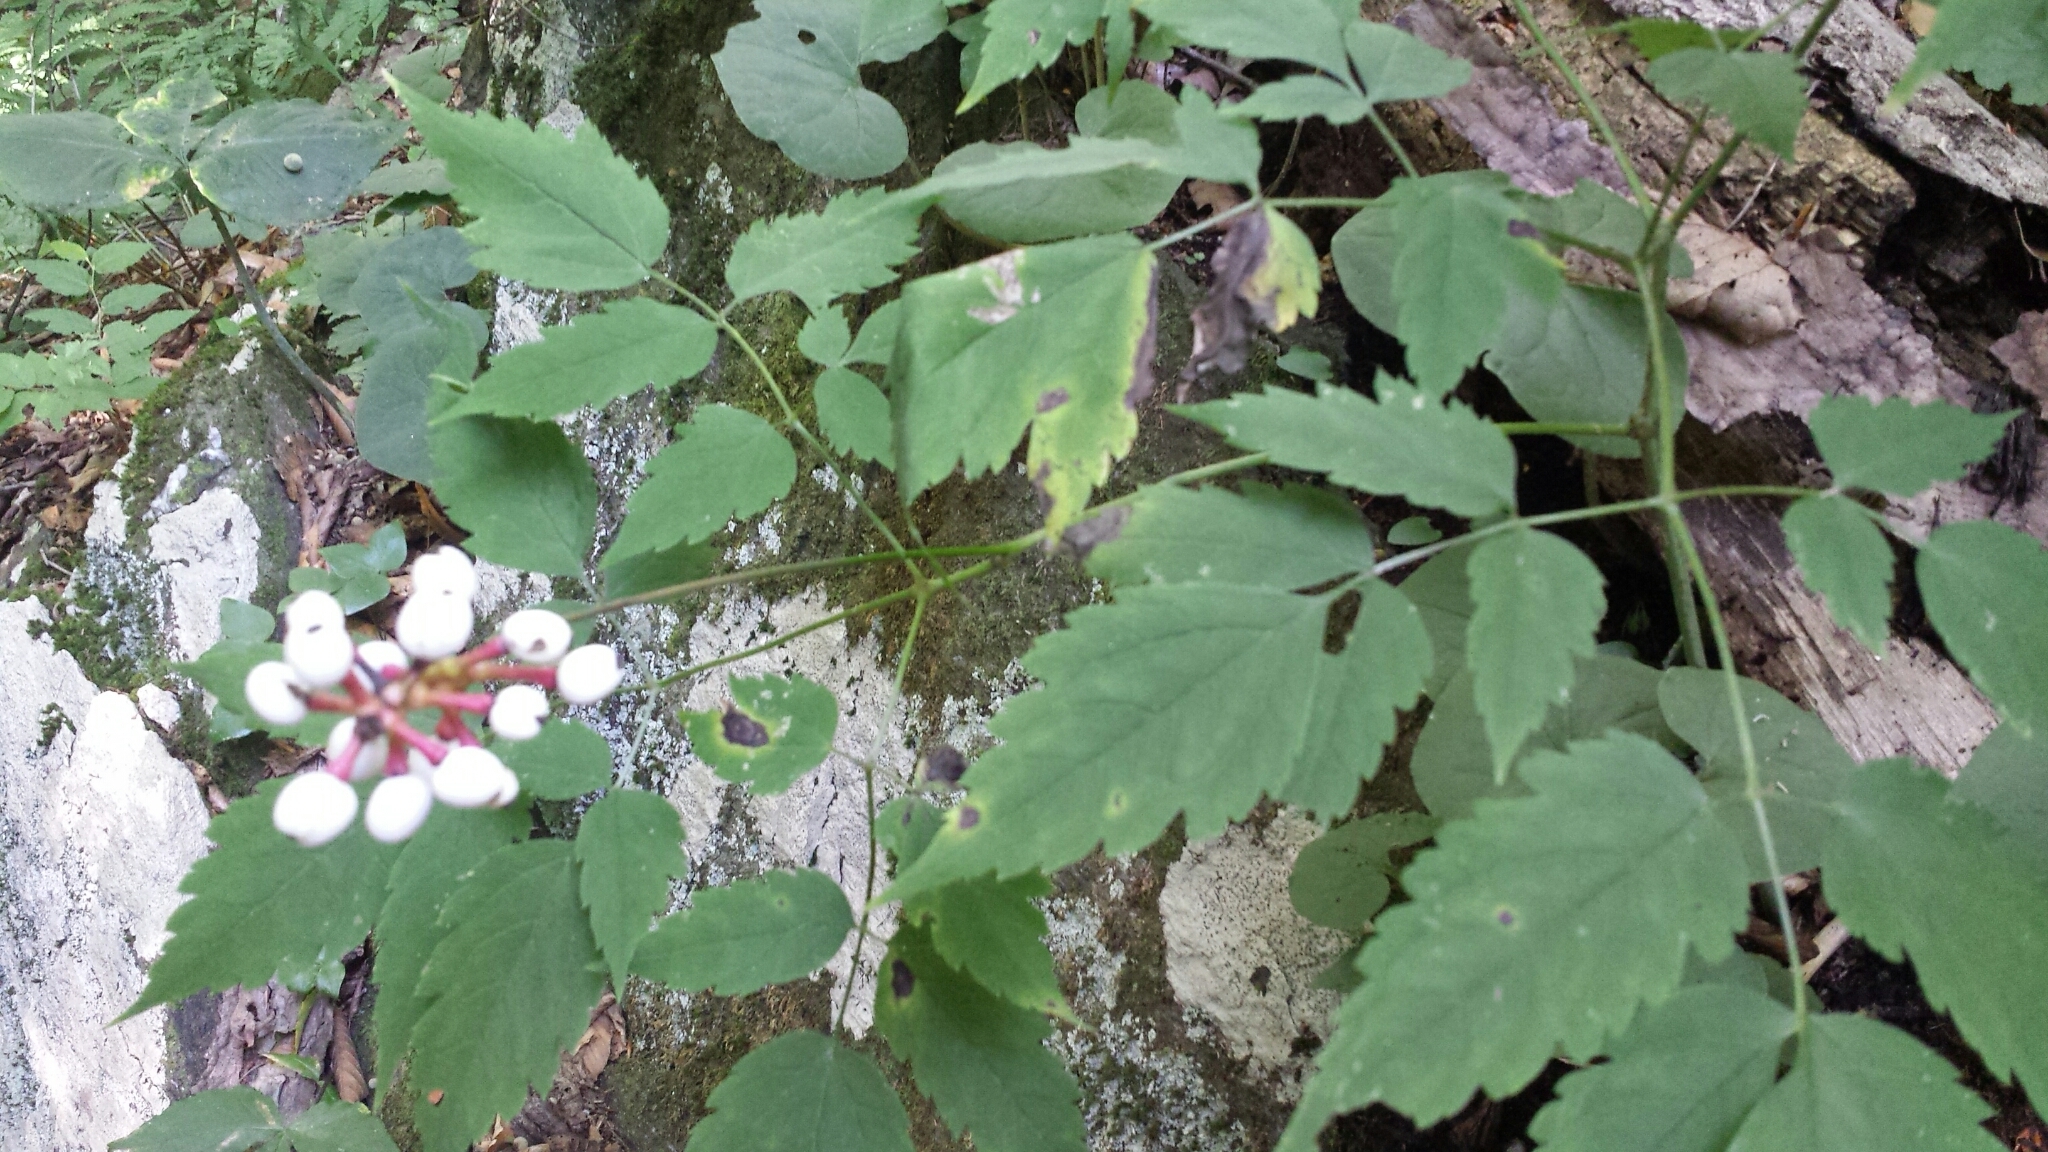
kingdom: Plantae
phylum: Tracheophyta
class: Magnoliopsida
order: Ranunculales
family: Ranunculaceae
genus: Actaea
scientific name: Actaea pachypoda
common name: Doll's-eyes
